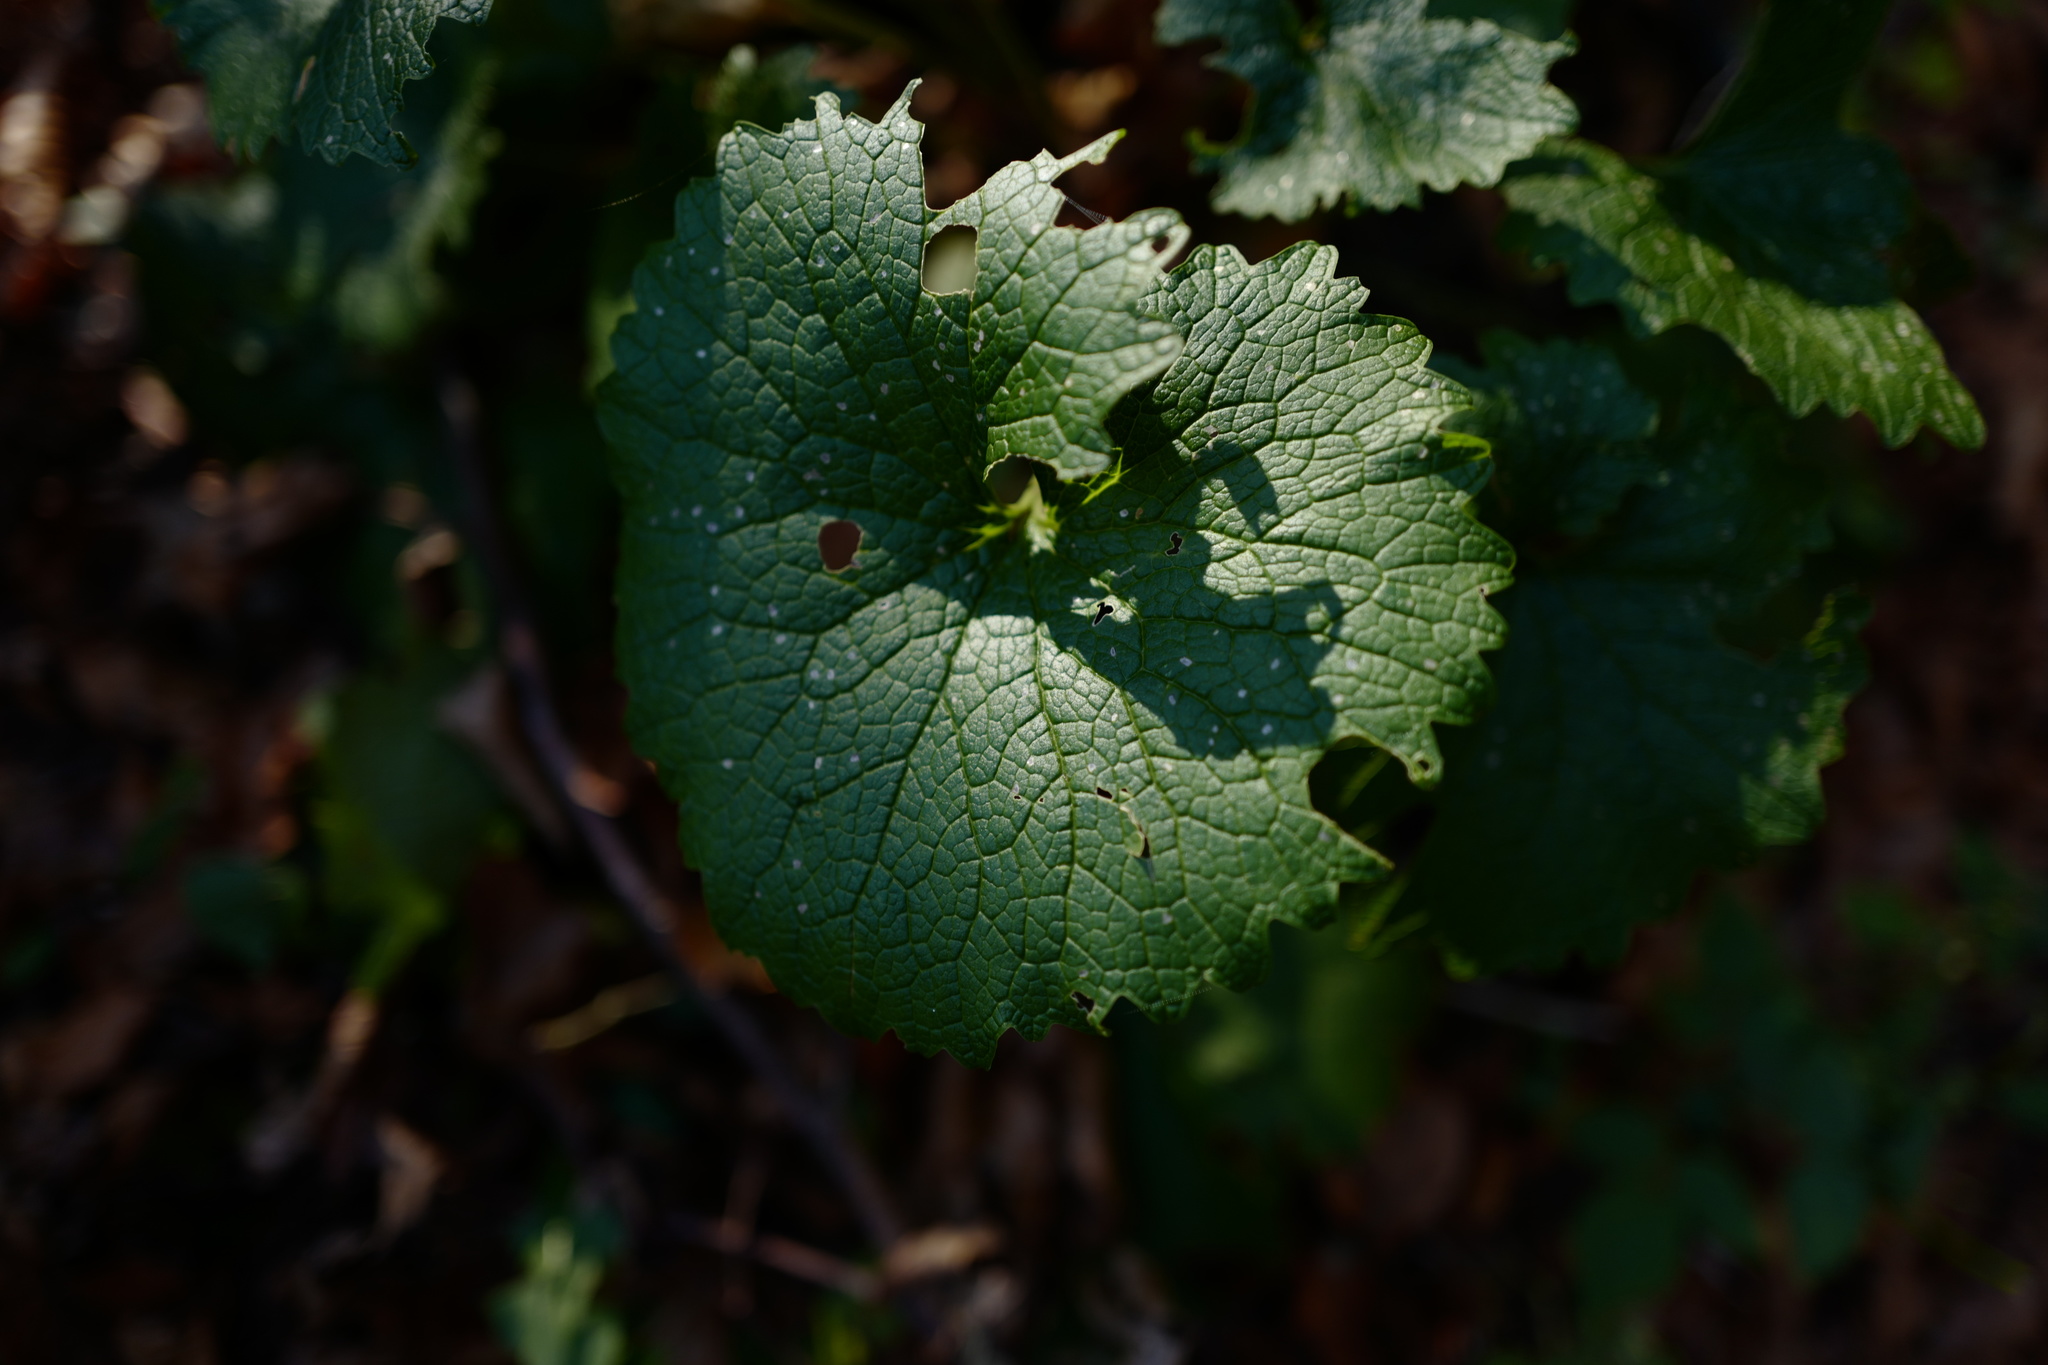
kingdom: Plantae
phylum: Tracheophyta
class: Magnoliopsida
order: Brassicales
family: Brassicaceae
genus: Alliaria
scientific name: Alliaria petiolata
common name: Garlic mustard
